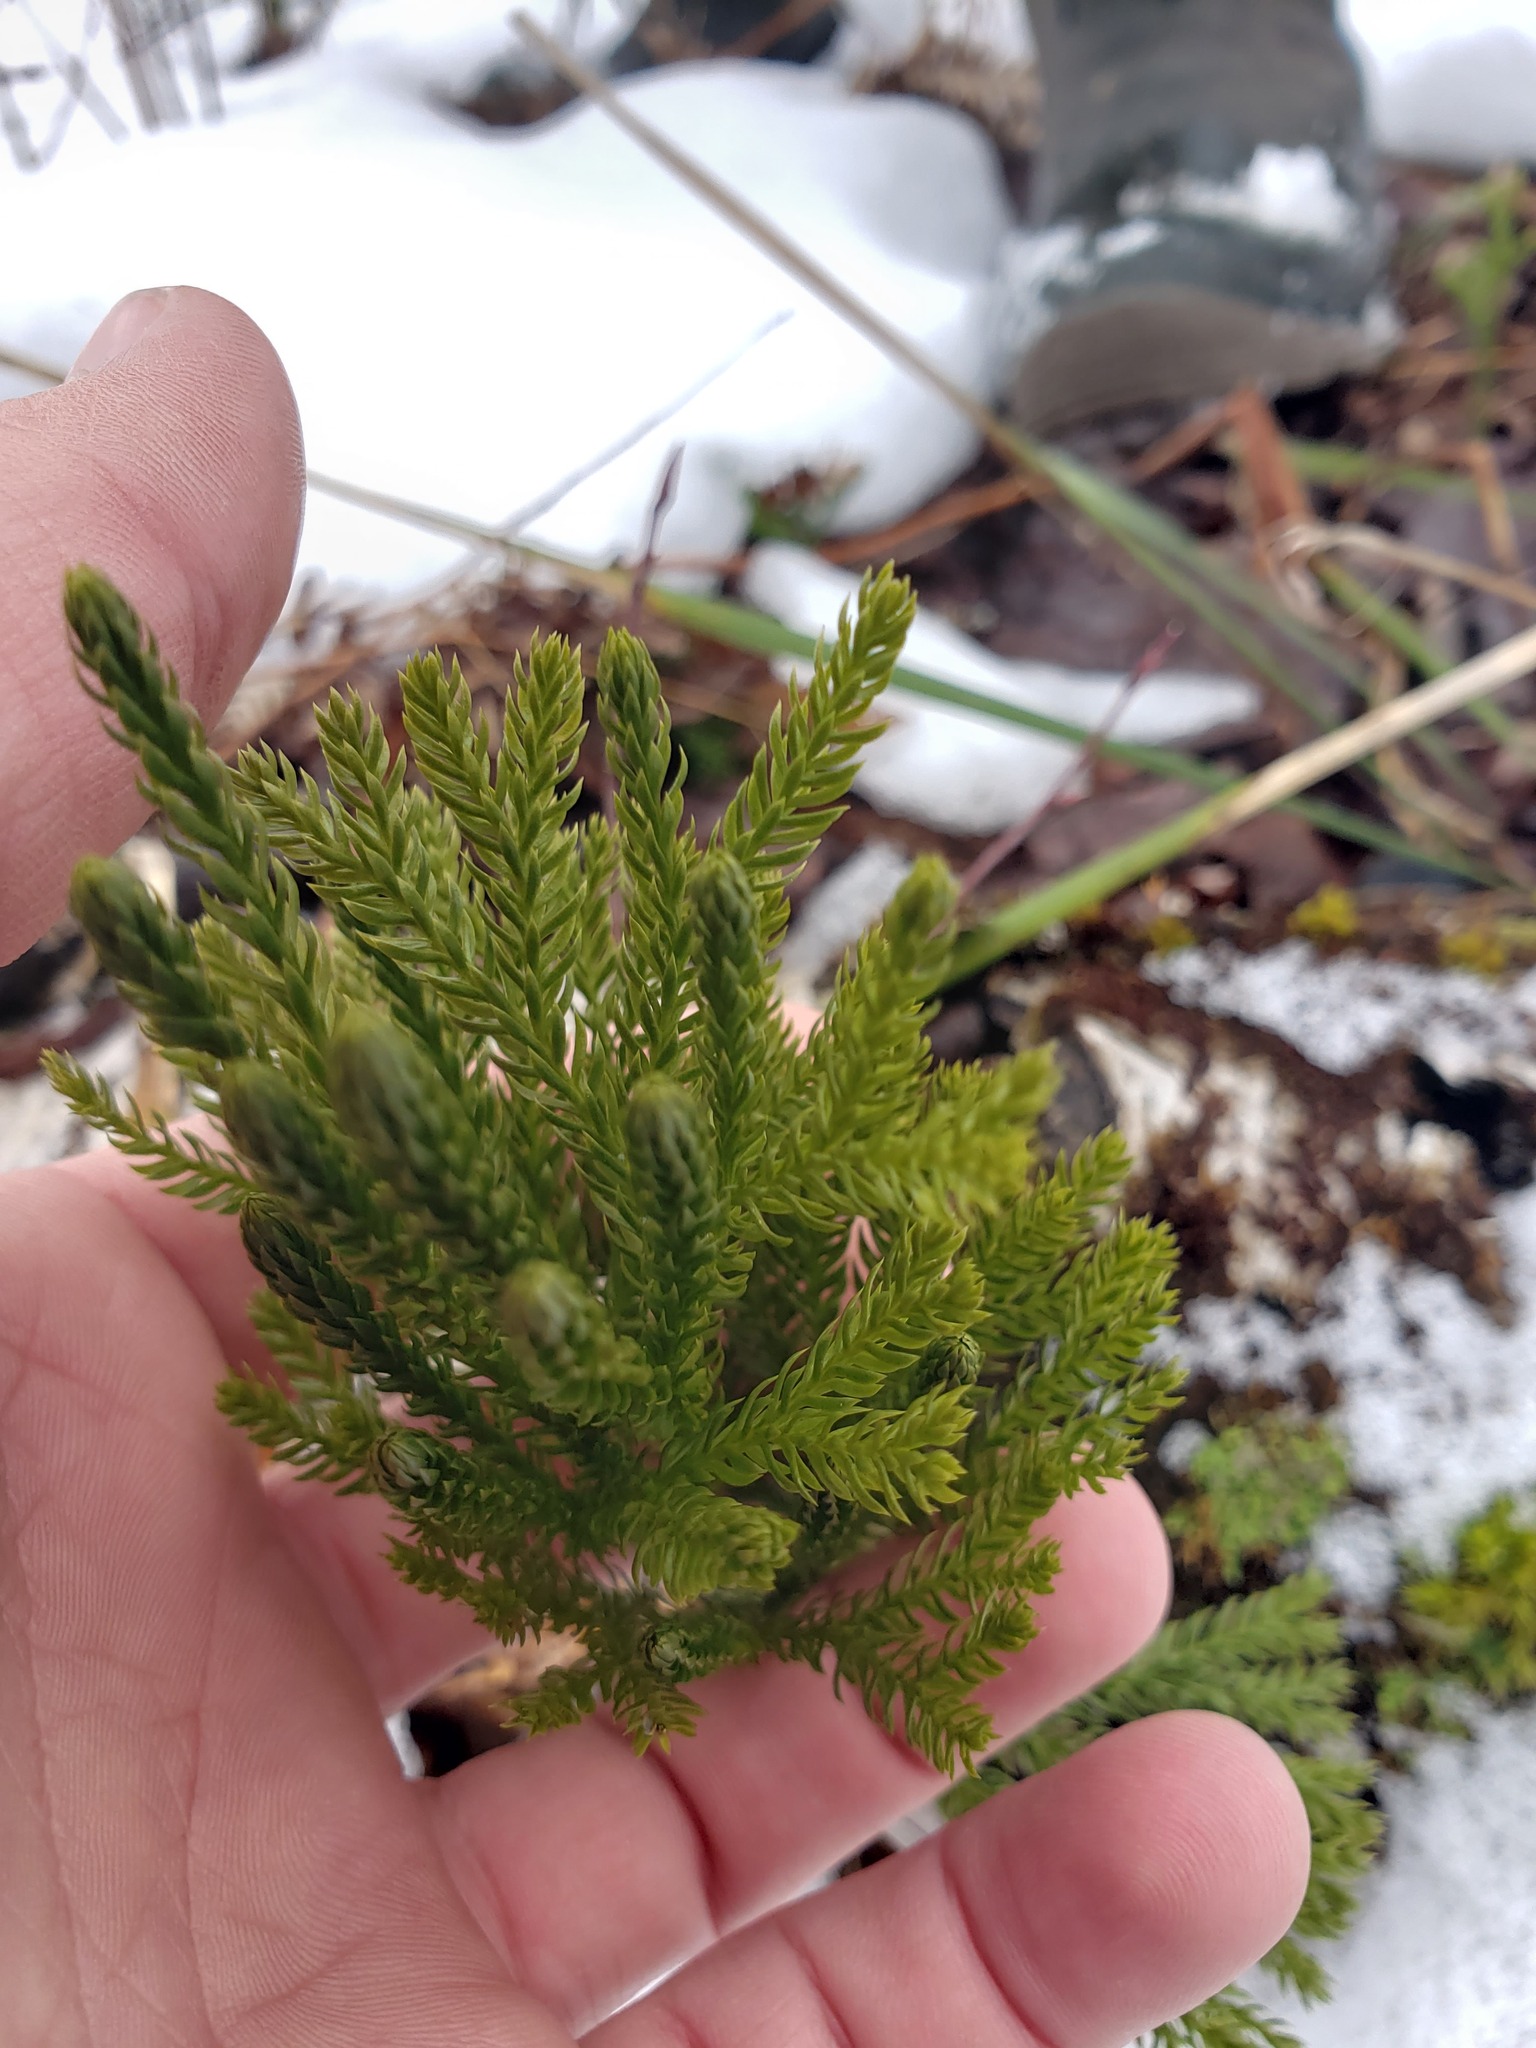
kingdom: Plantae
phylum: Tracheophyta
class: Lycopodiopsida
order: Lycopodiales
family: Lycopodiaceae
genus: Dendrolycopodium
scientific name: Dendrolycopodium obscurum
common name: Common ground-pine
